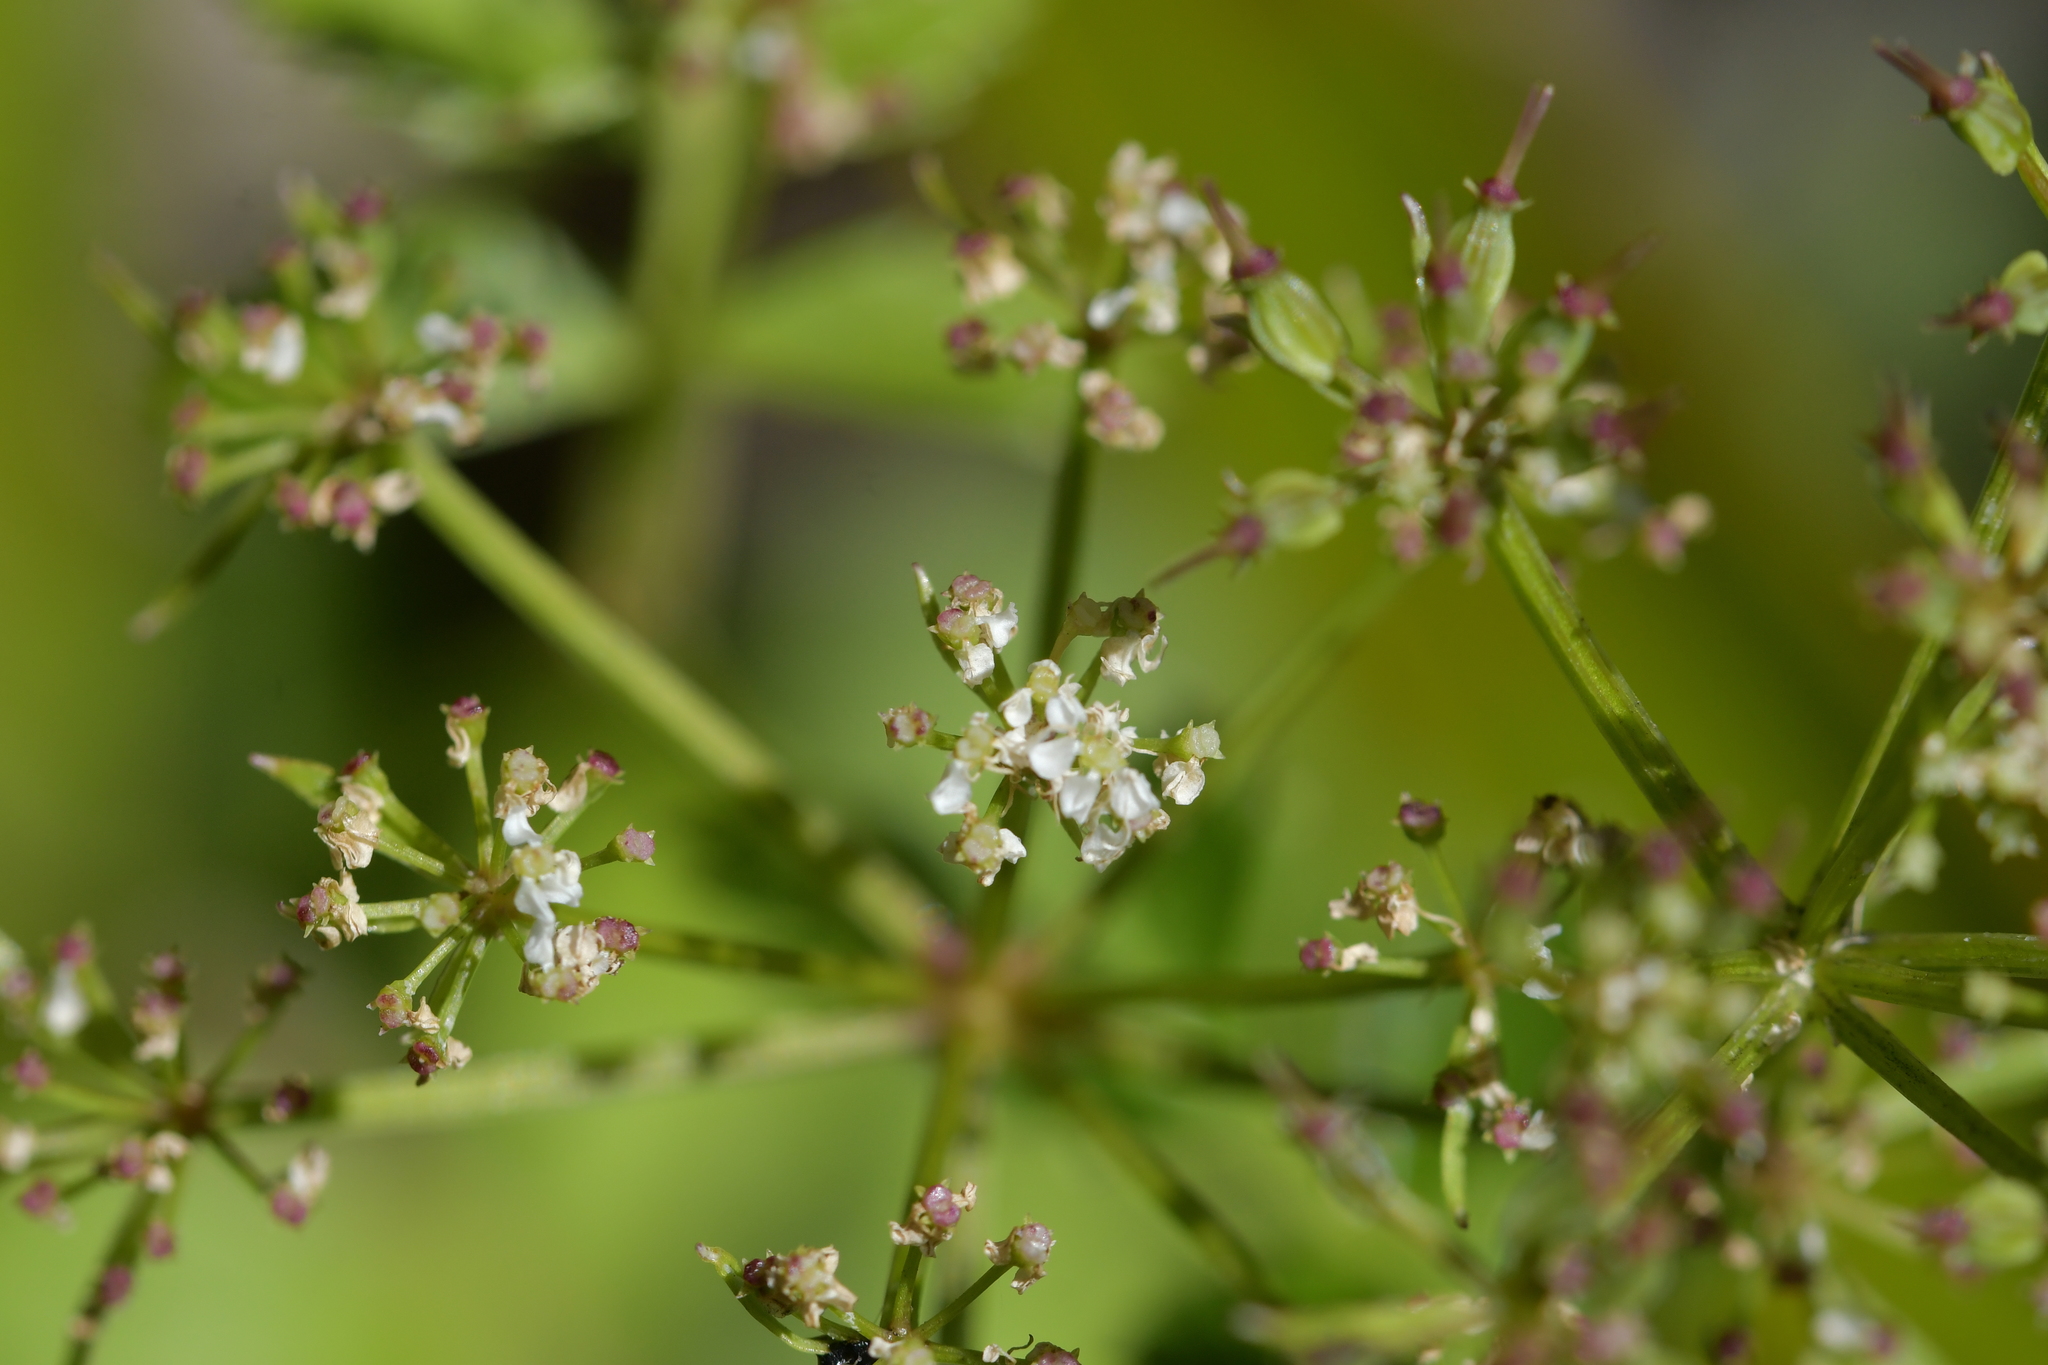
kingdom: Plantae
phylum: Tracheophyta
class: Magnoliopsida
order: Apiales
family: Apiaceae
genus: Gingidia
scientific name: Gingidia montana
